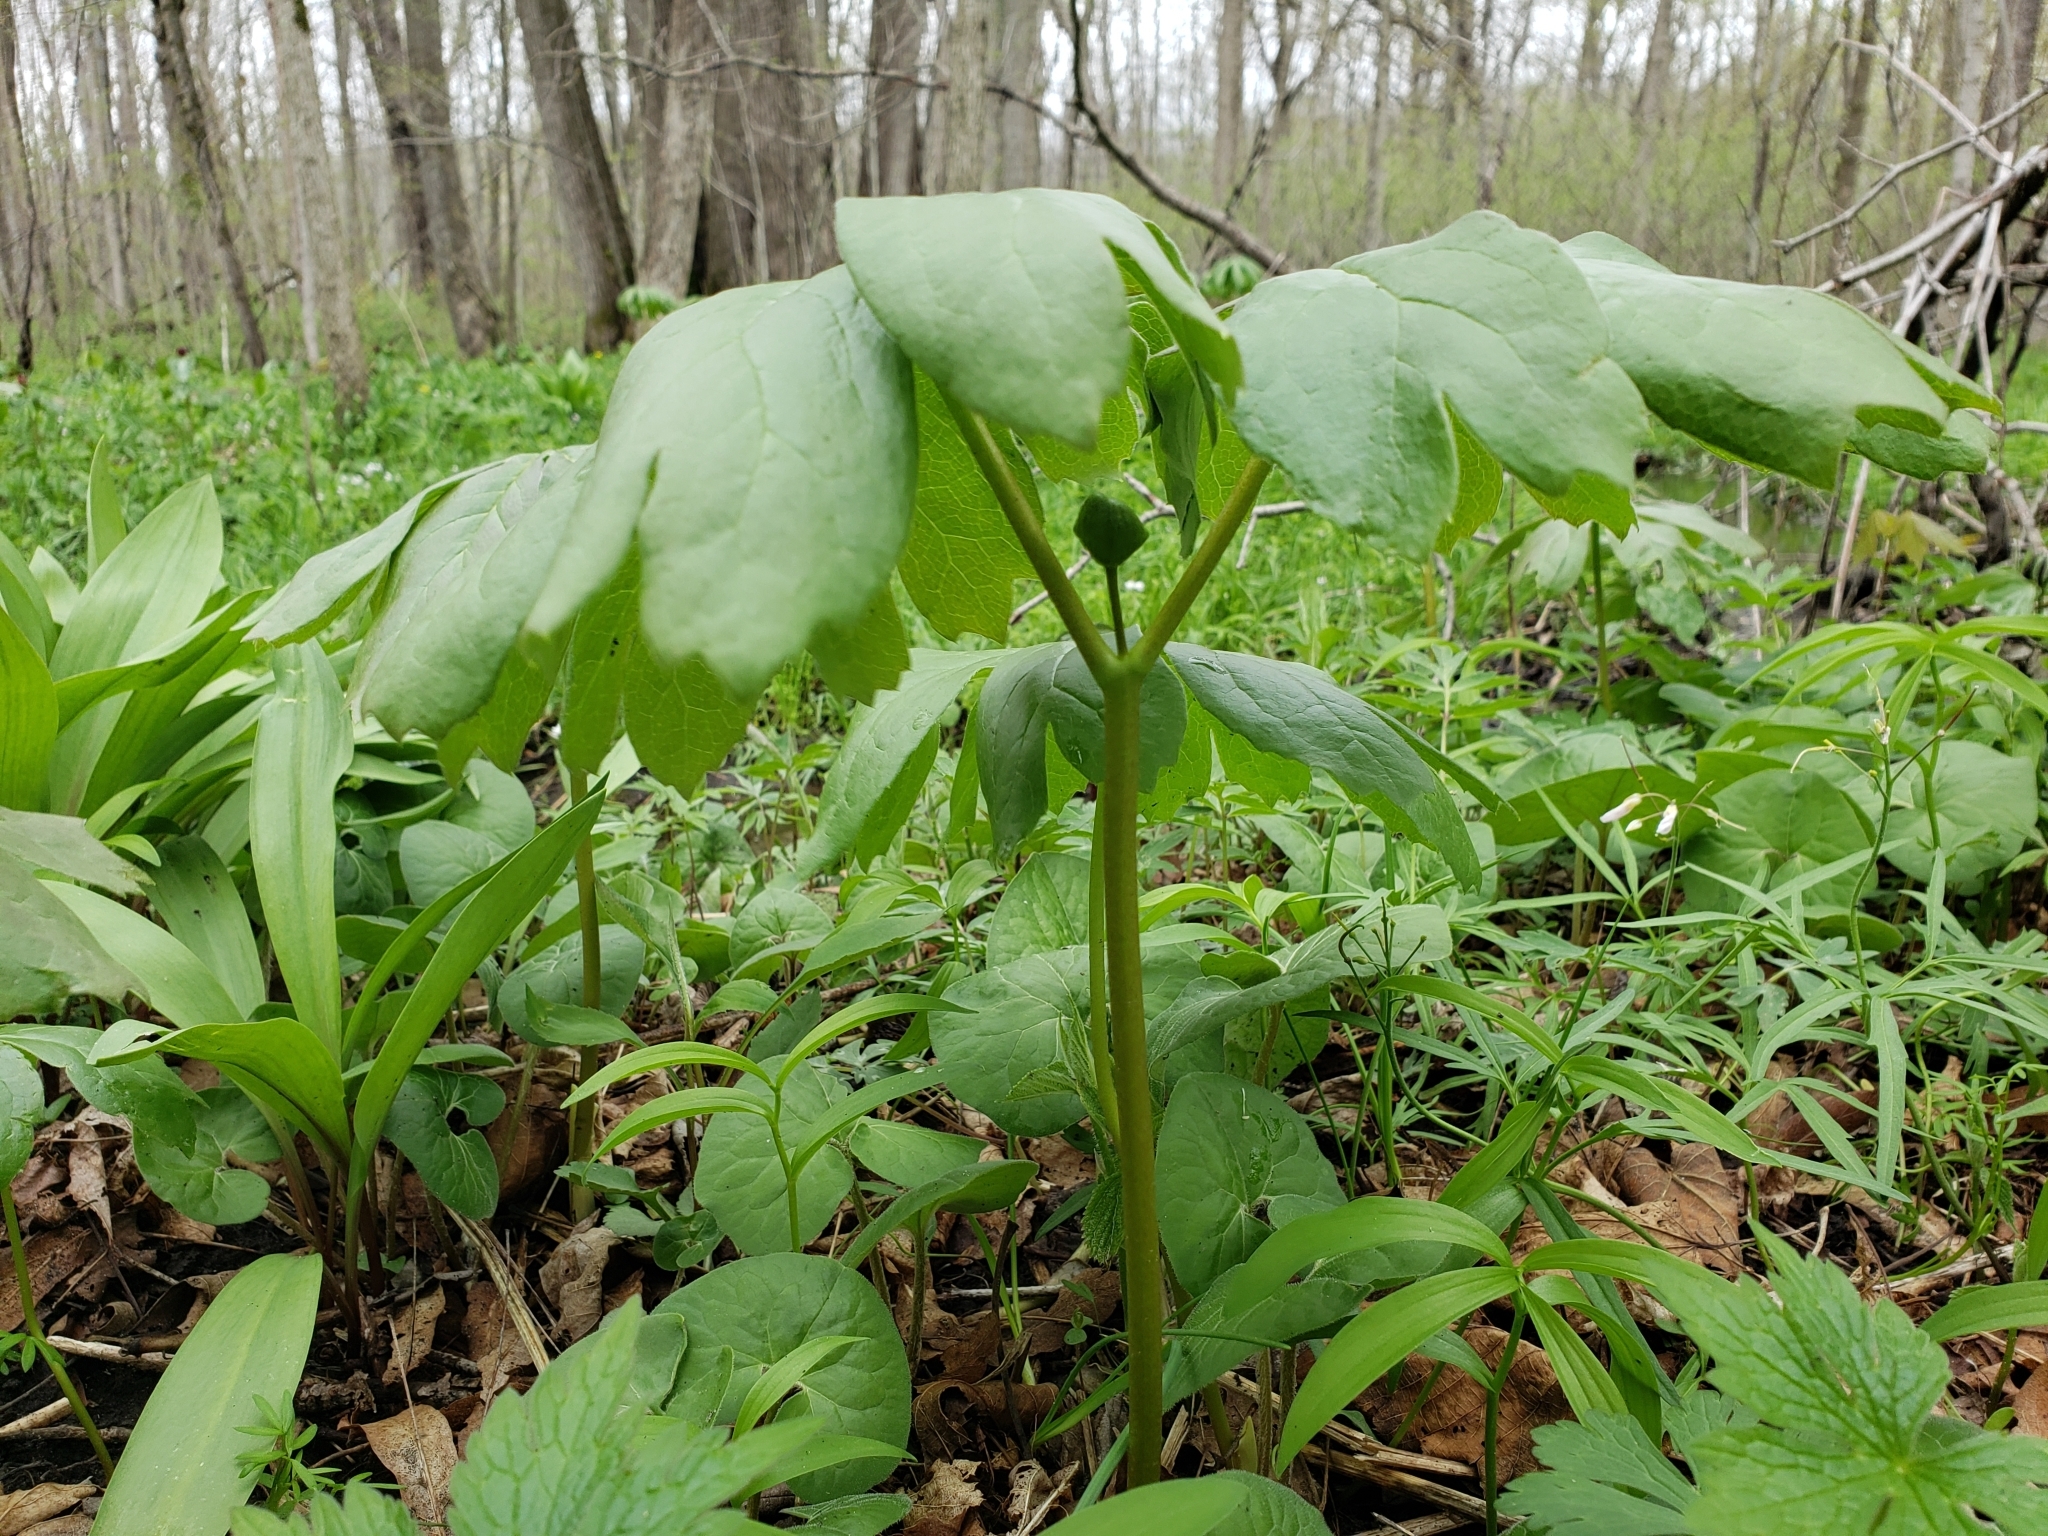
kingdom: Plantae
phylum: Tracheophyta
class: Magnoliopsida
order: Ranunculales
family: Berberidaceae
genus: Podophyllum
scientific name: Podophyllum peltatum
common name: Wild mandrake
